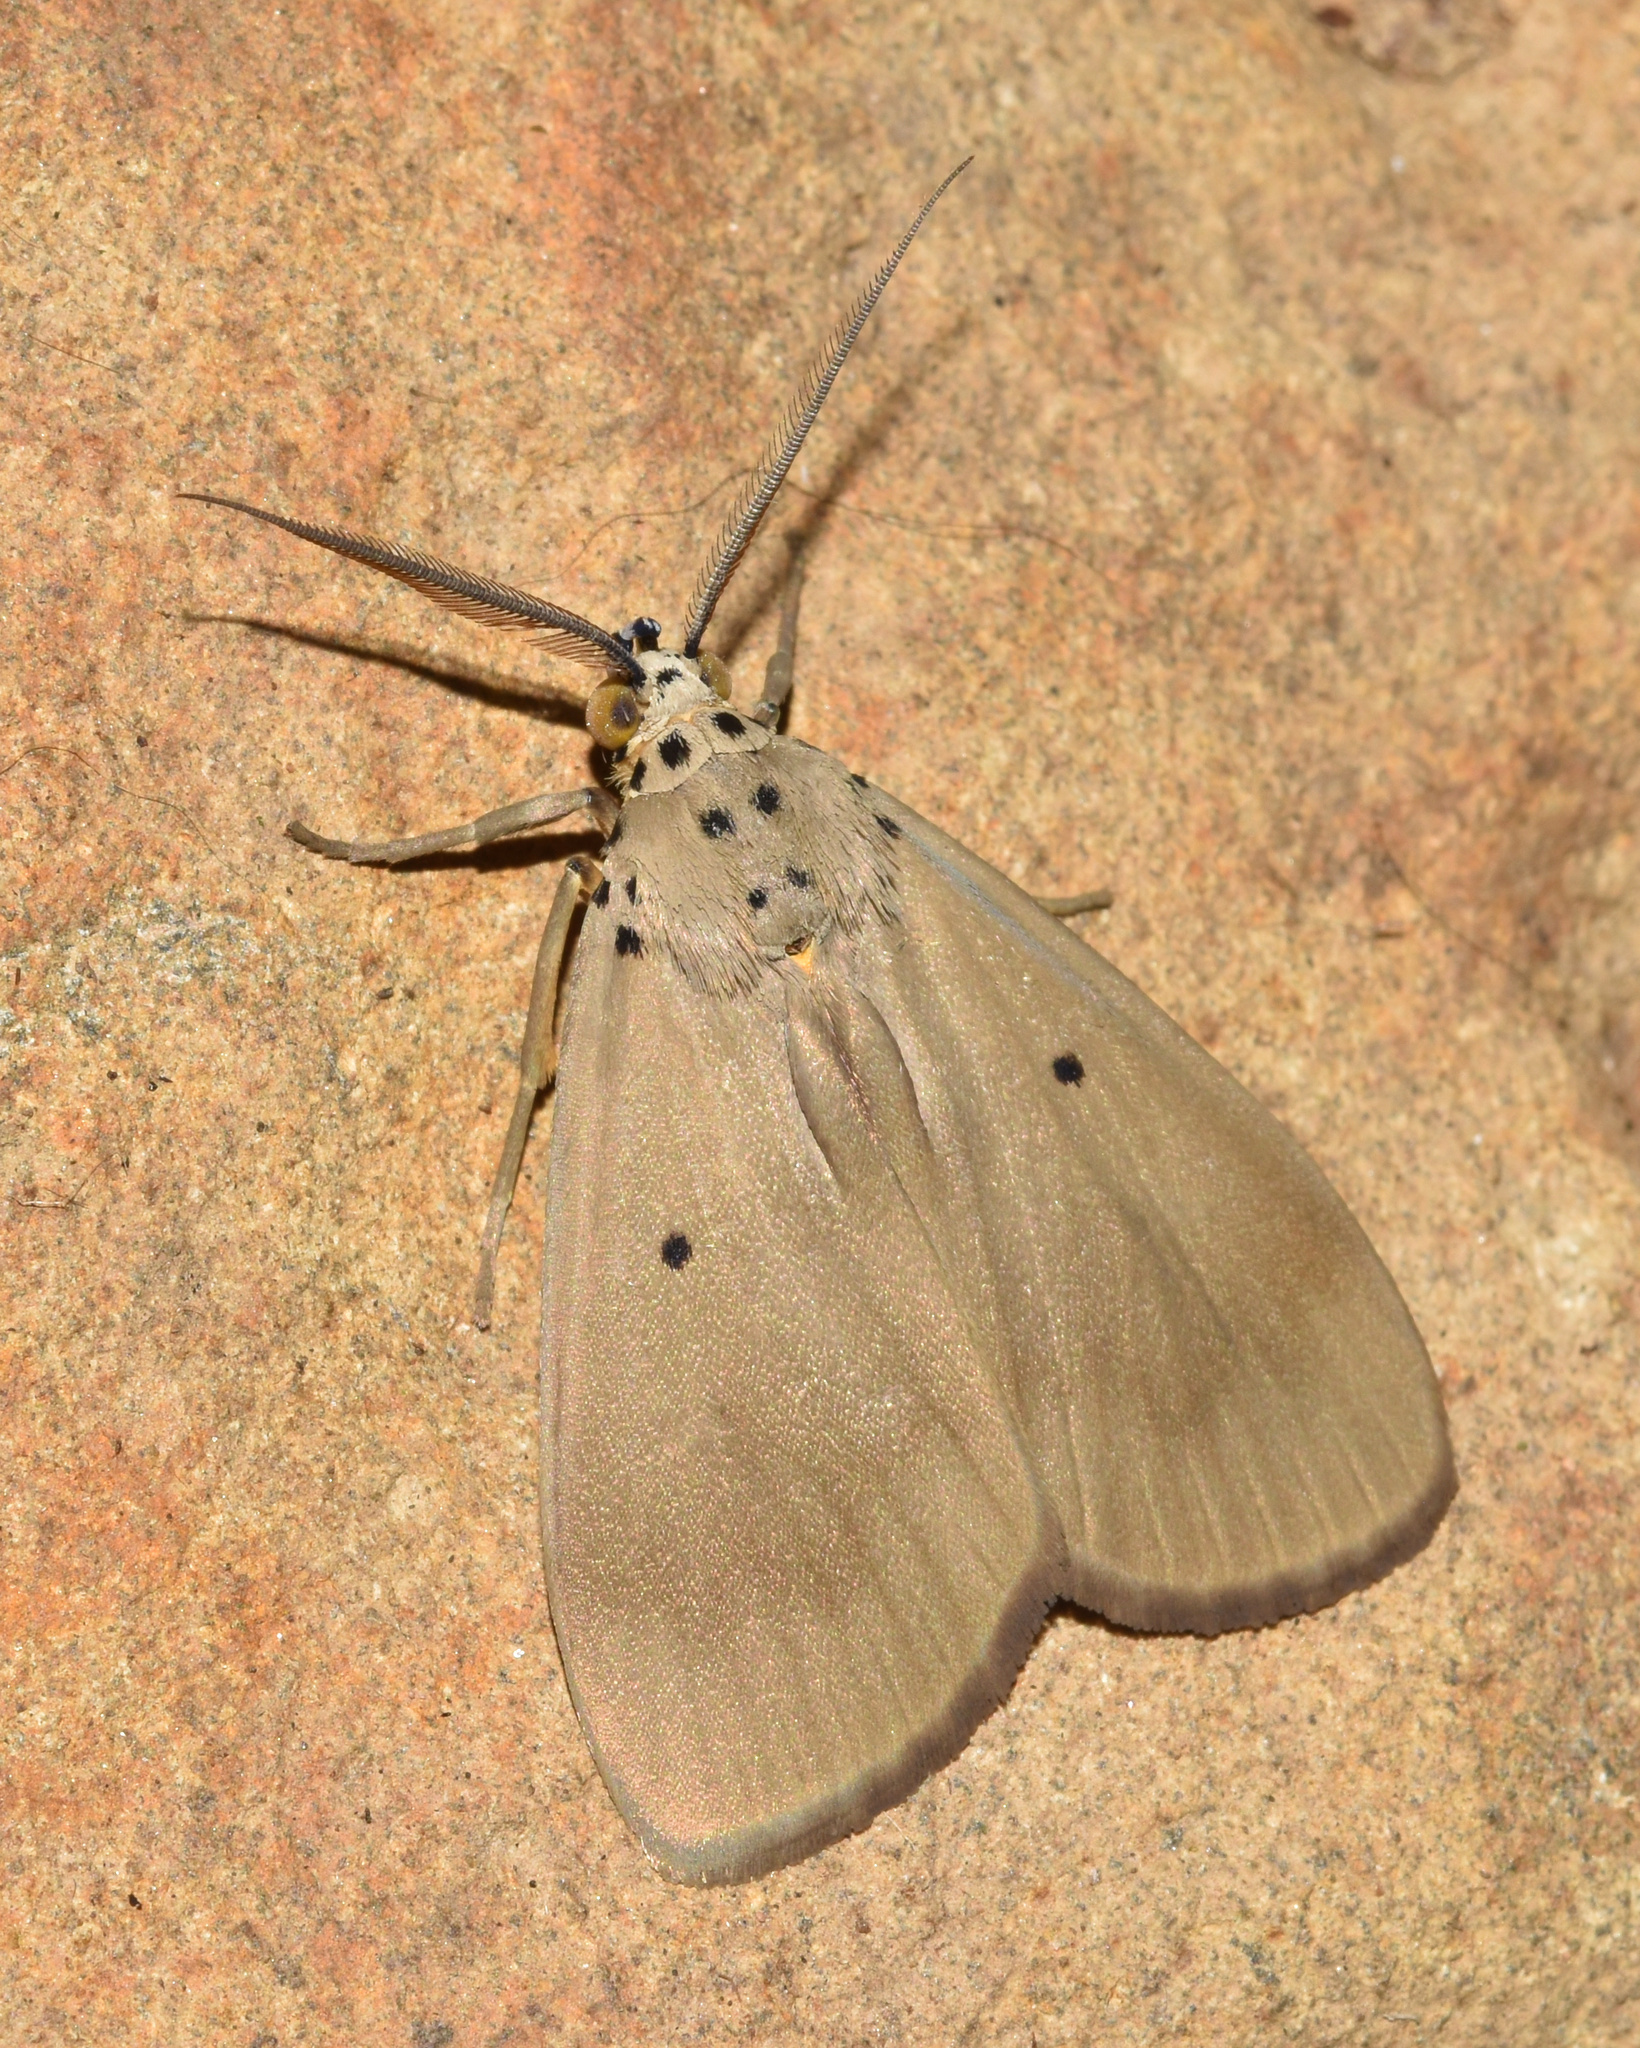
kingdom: Animalia
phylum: Arthropoda
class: Insecta
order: Lepidoptera
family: Erebidae
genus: Digama
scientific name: Digama aganais
